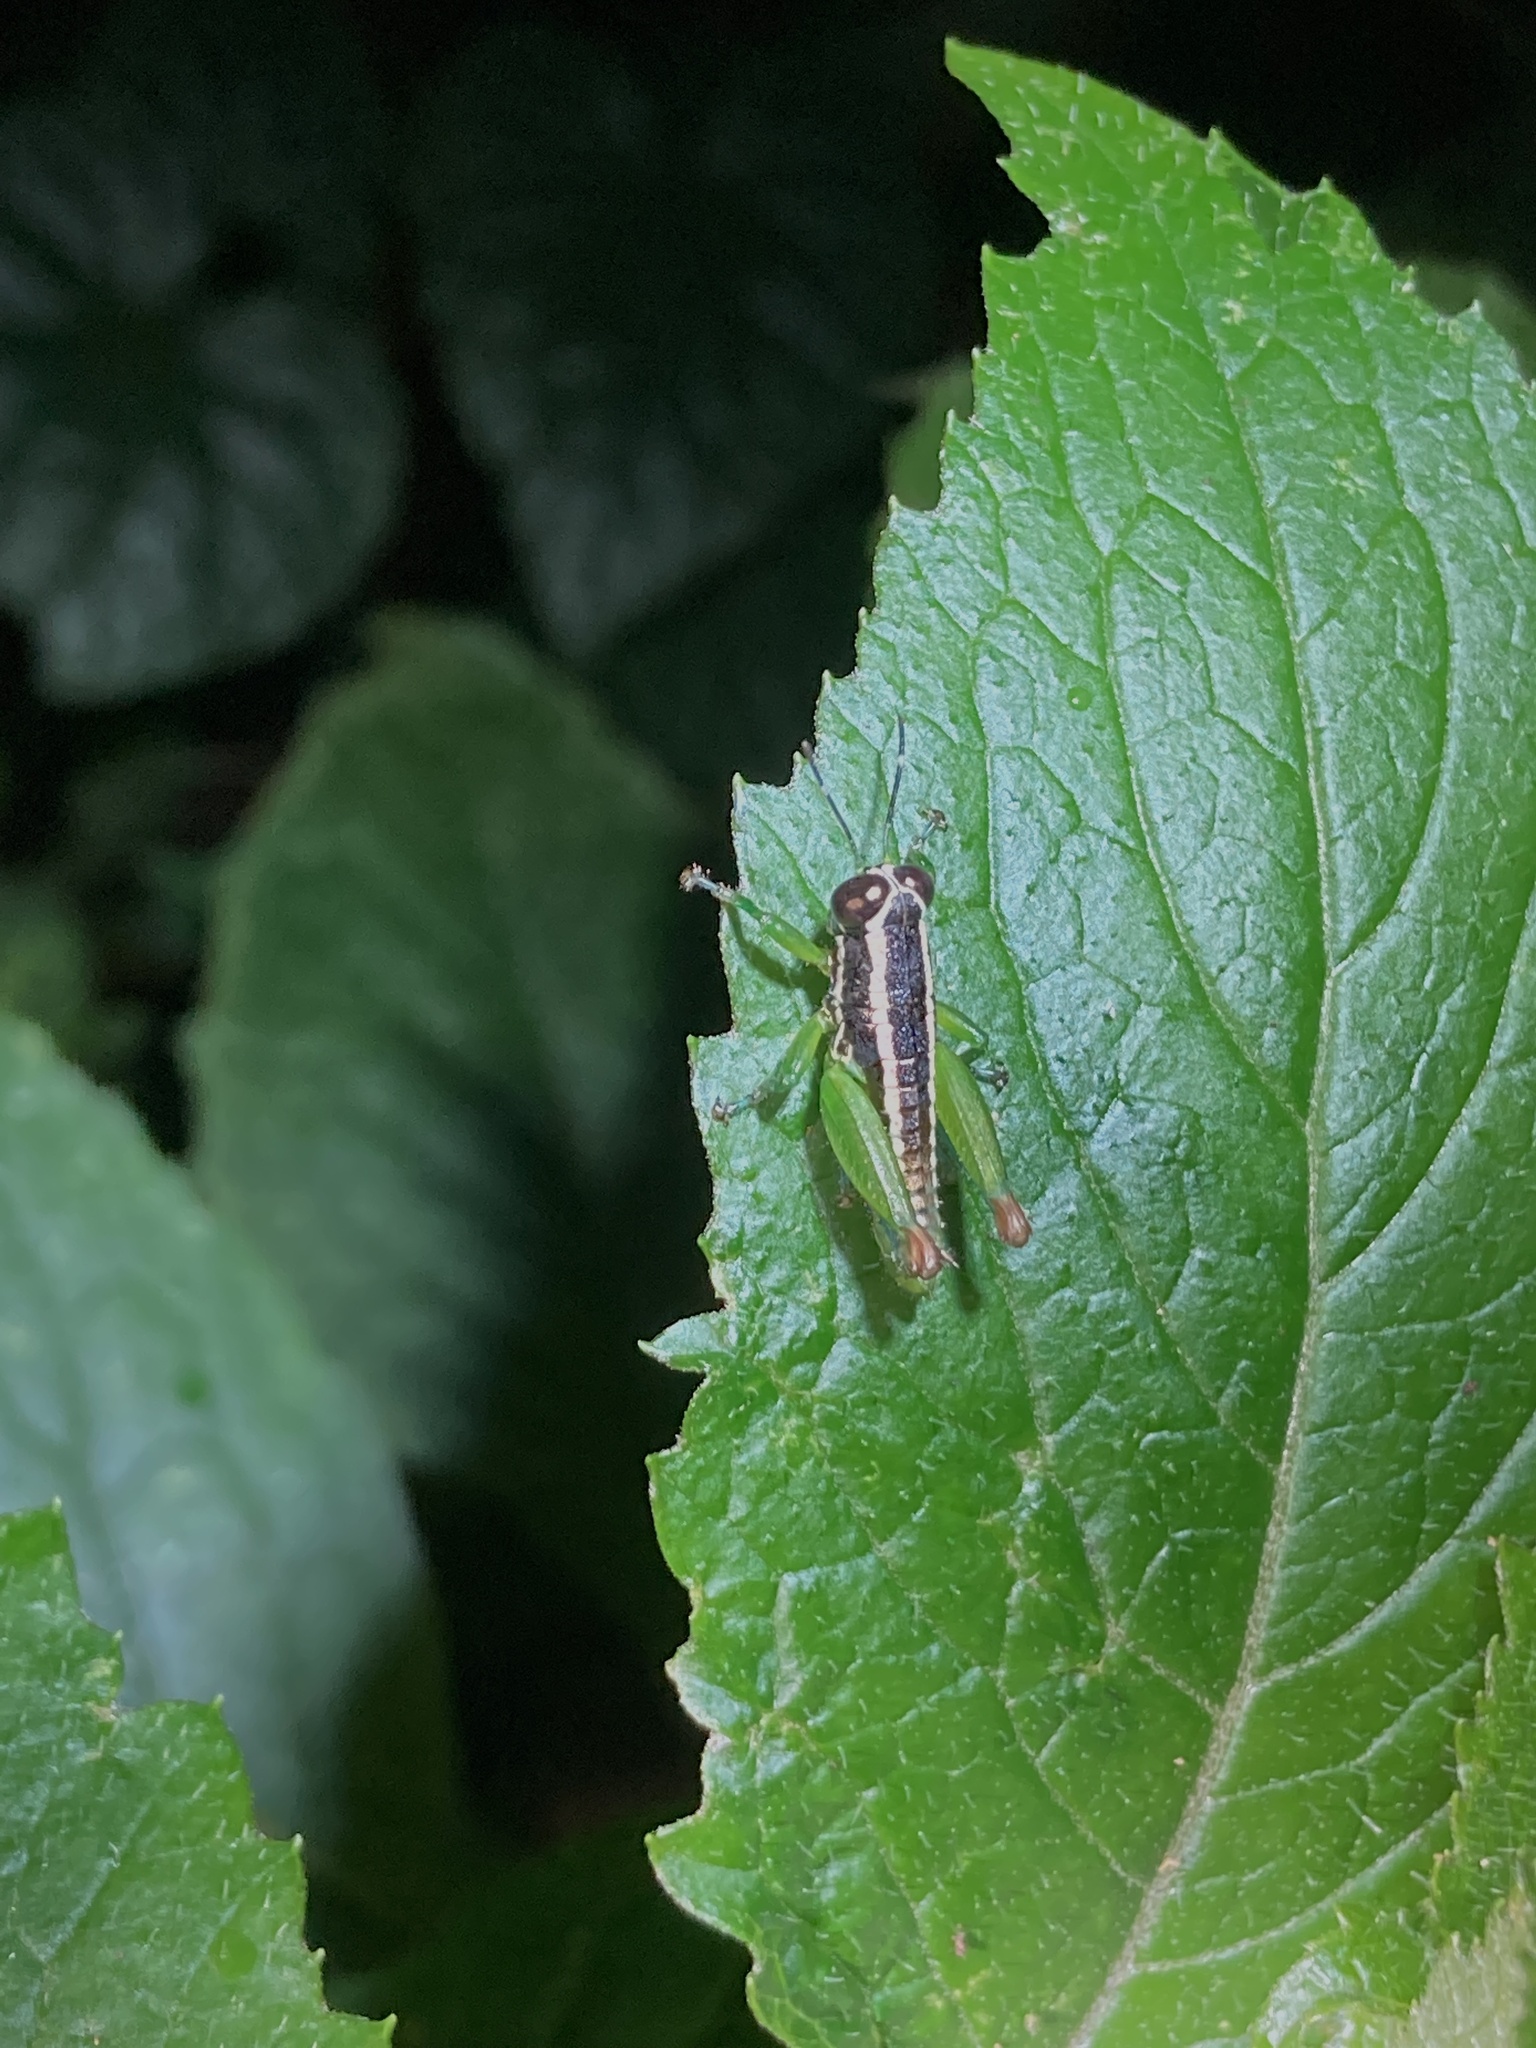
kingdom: Animalia
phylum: Arthropoda
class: Insecta
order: Orthoptera
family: Lentulidae
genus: Usambilla
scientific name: Usambilla affinis
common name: Uluguru striped grasshopper
